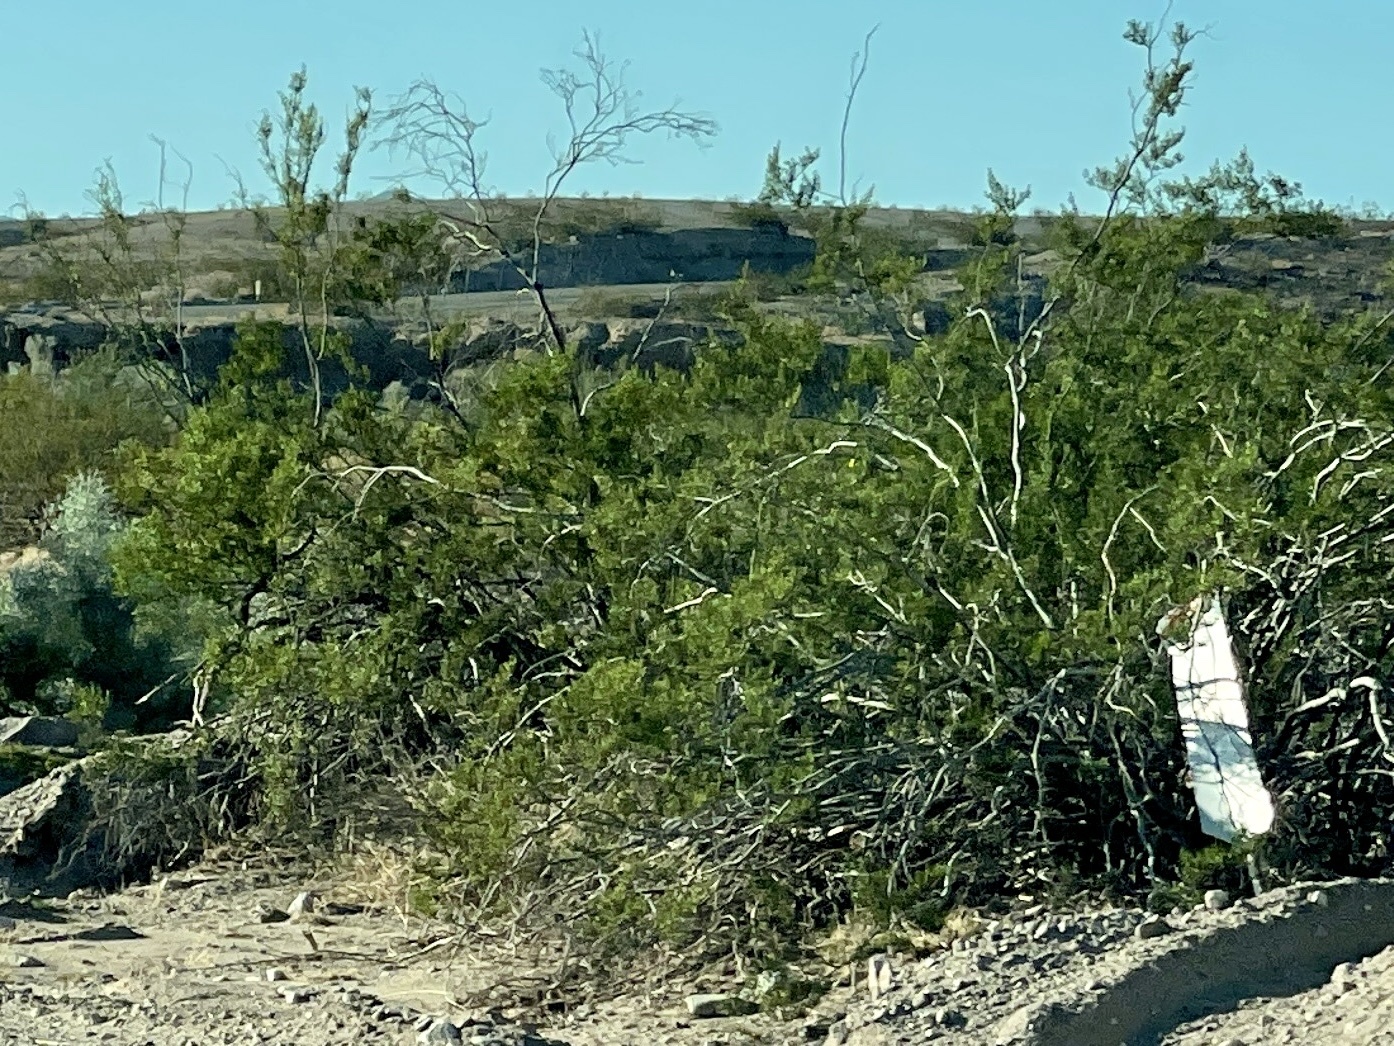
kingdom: Plantae
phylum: Tracheophyta
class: Magnoliopsida
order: Zygophyllales
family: Zygophyllaceae
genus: Larrea
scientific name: Larrea tridentata
